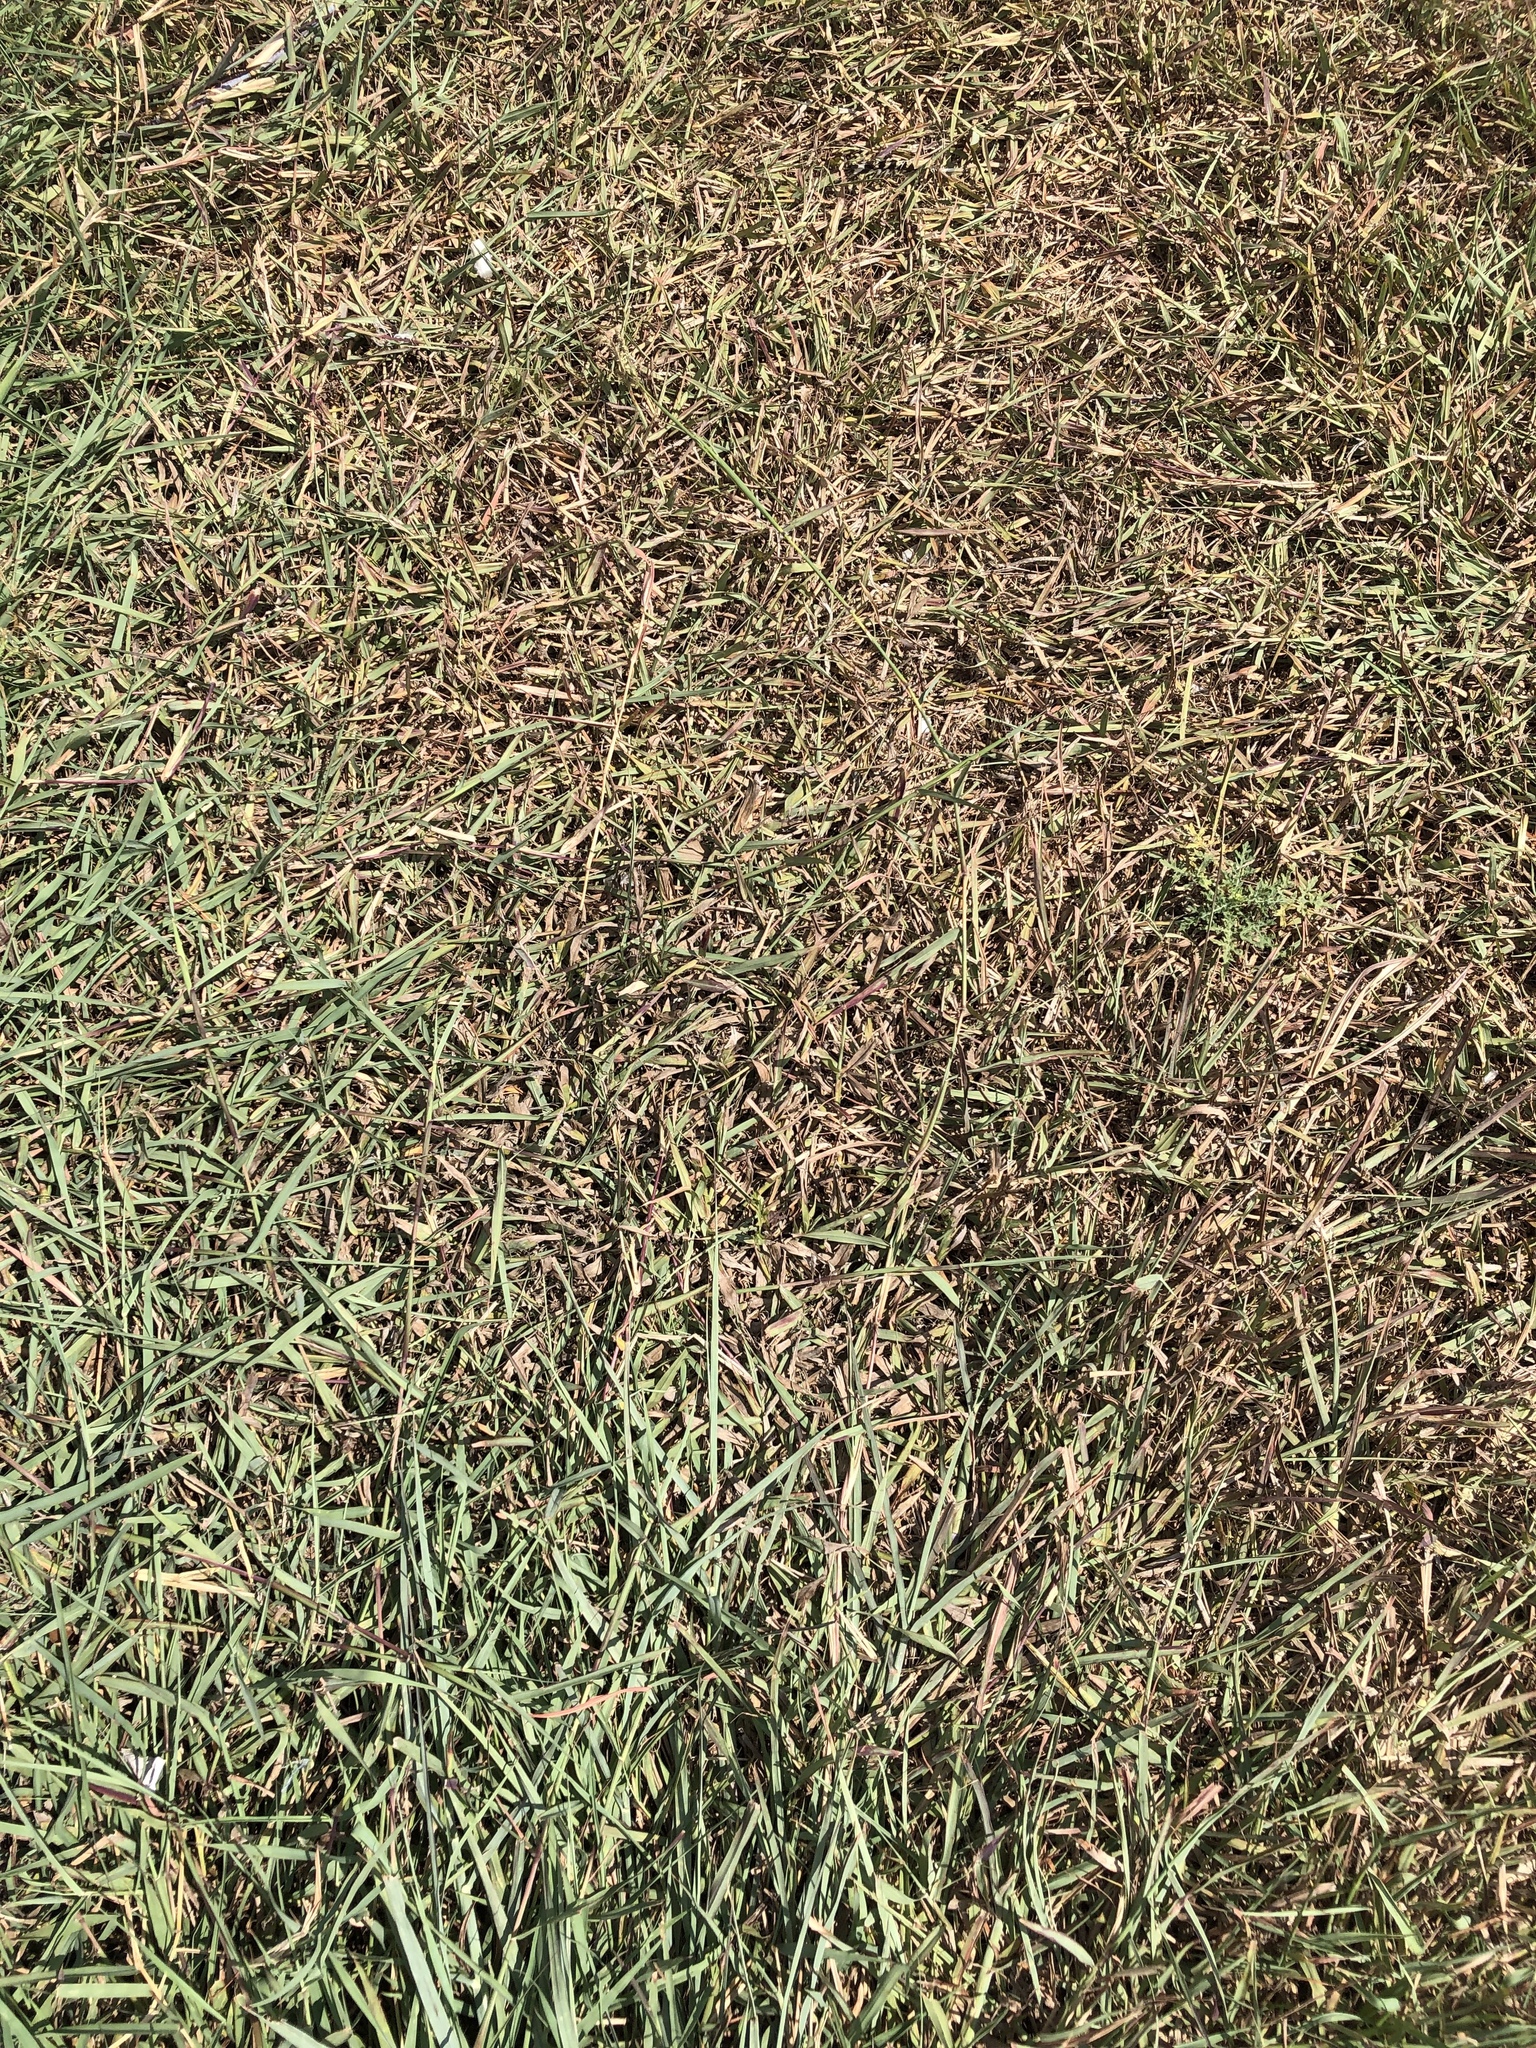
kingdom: Plantae
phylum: Tracheophyta
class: Liliopsida
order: Poales
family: Poaceae
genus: Dichanthium
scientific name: Dichanthium annulatum
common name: Kleberg's bluestem
